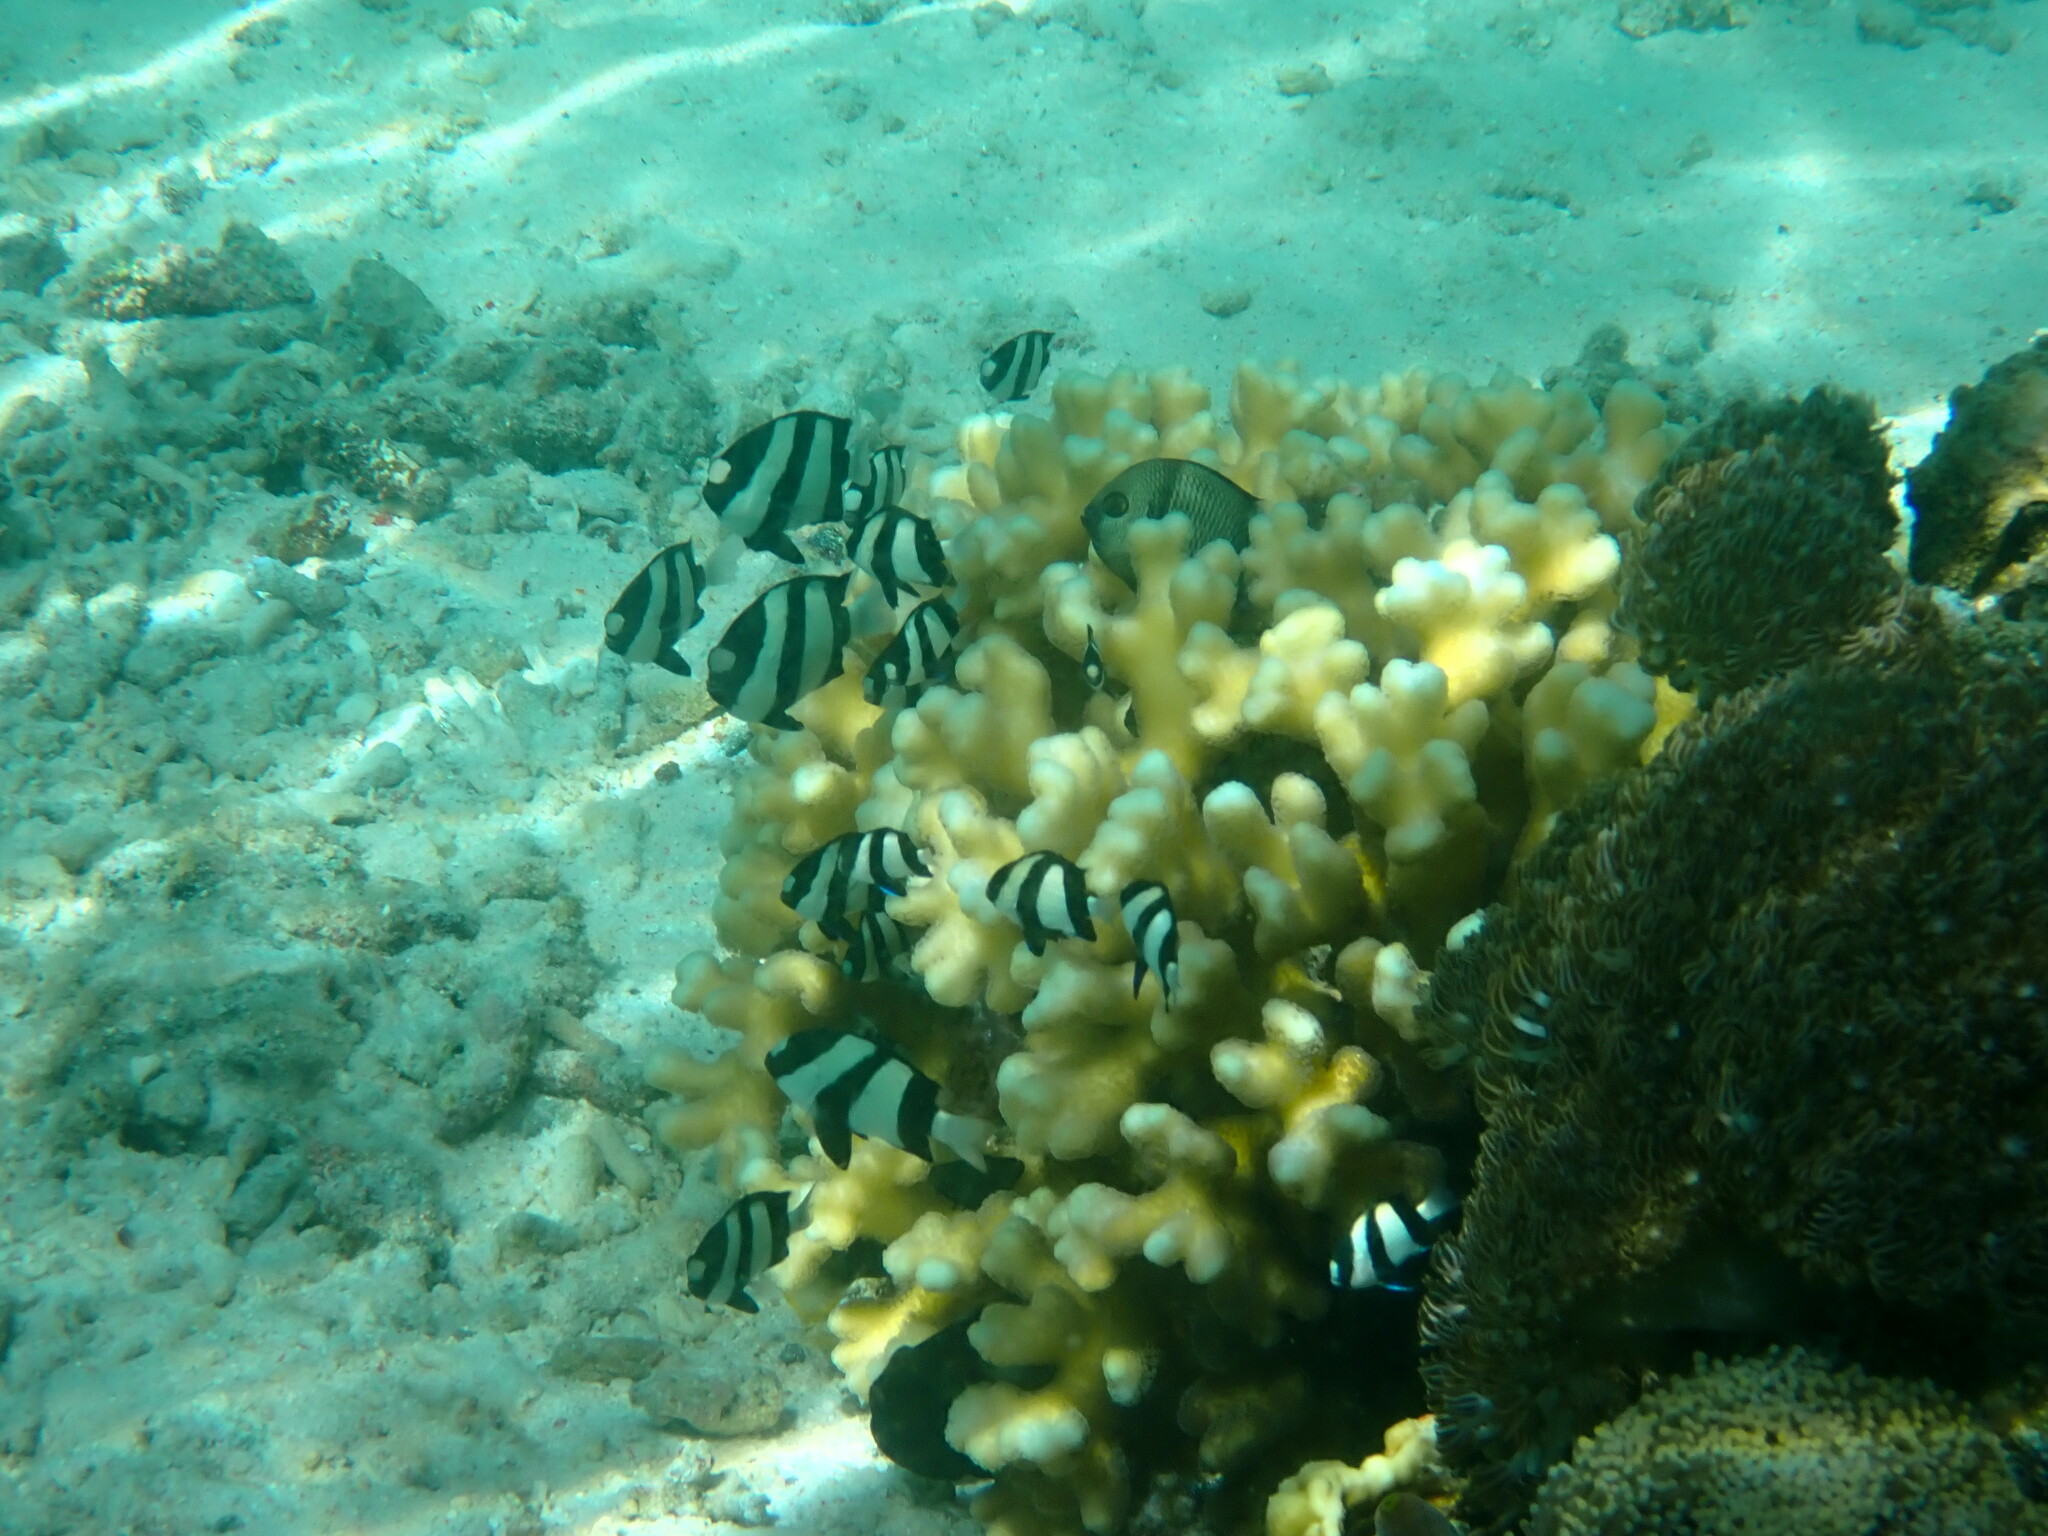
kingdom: Animalia
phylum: Chordata
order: Perciformes
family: Pomacentridae
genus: Dascyllus
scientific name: Dascyllus aruanus
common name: Humbug dascyllus
